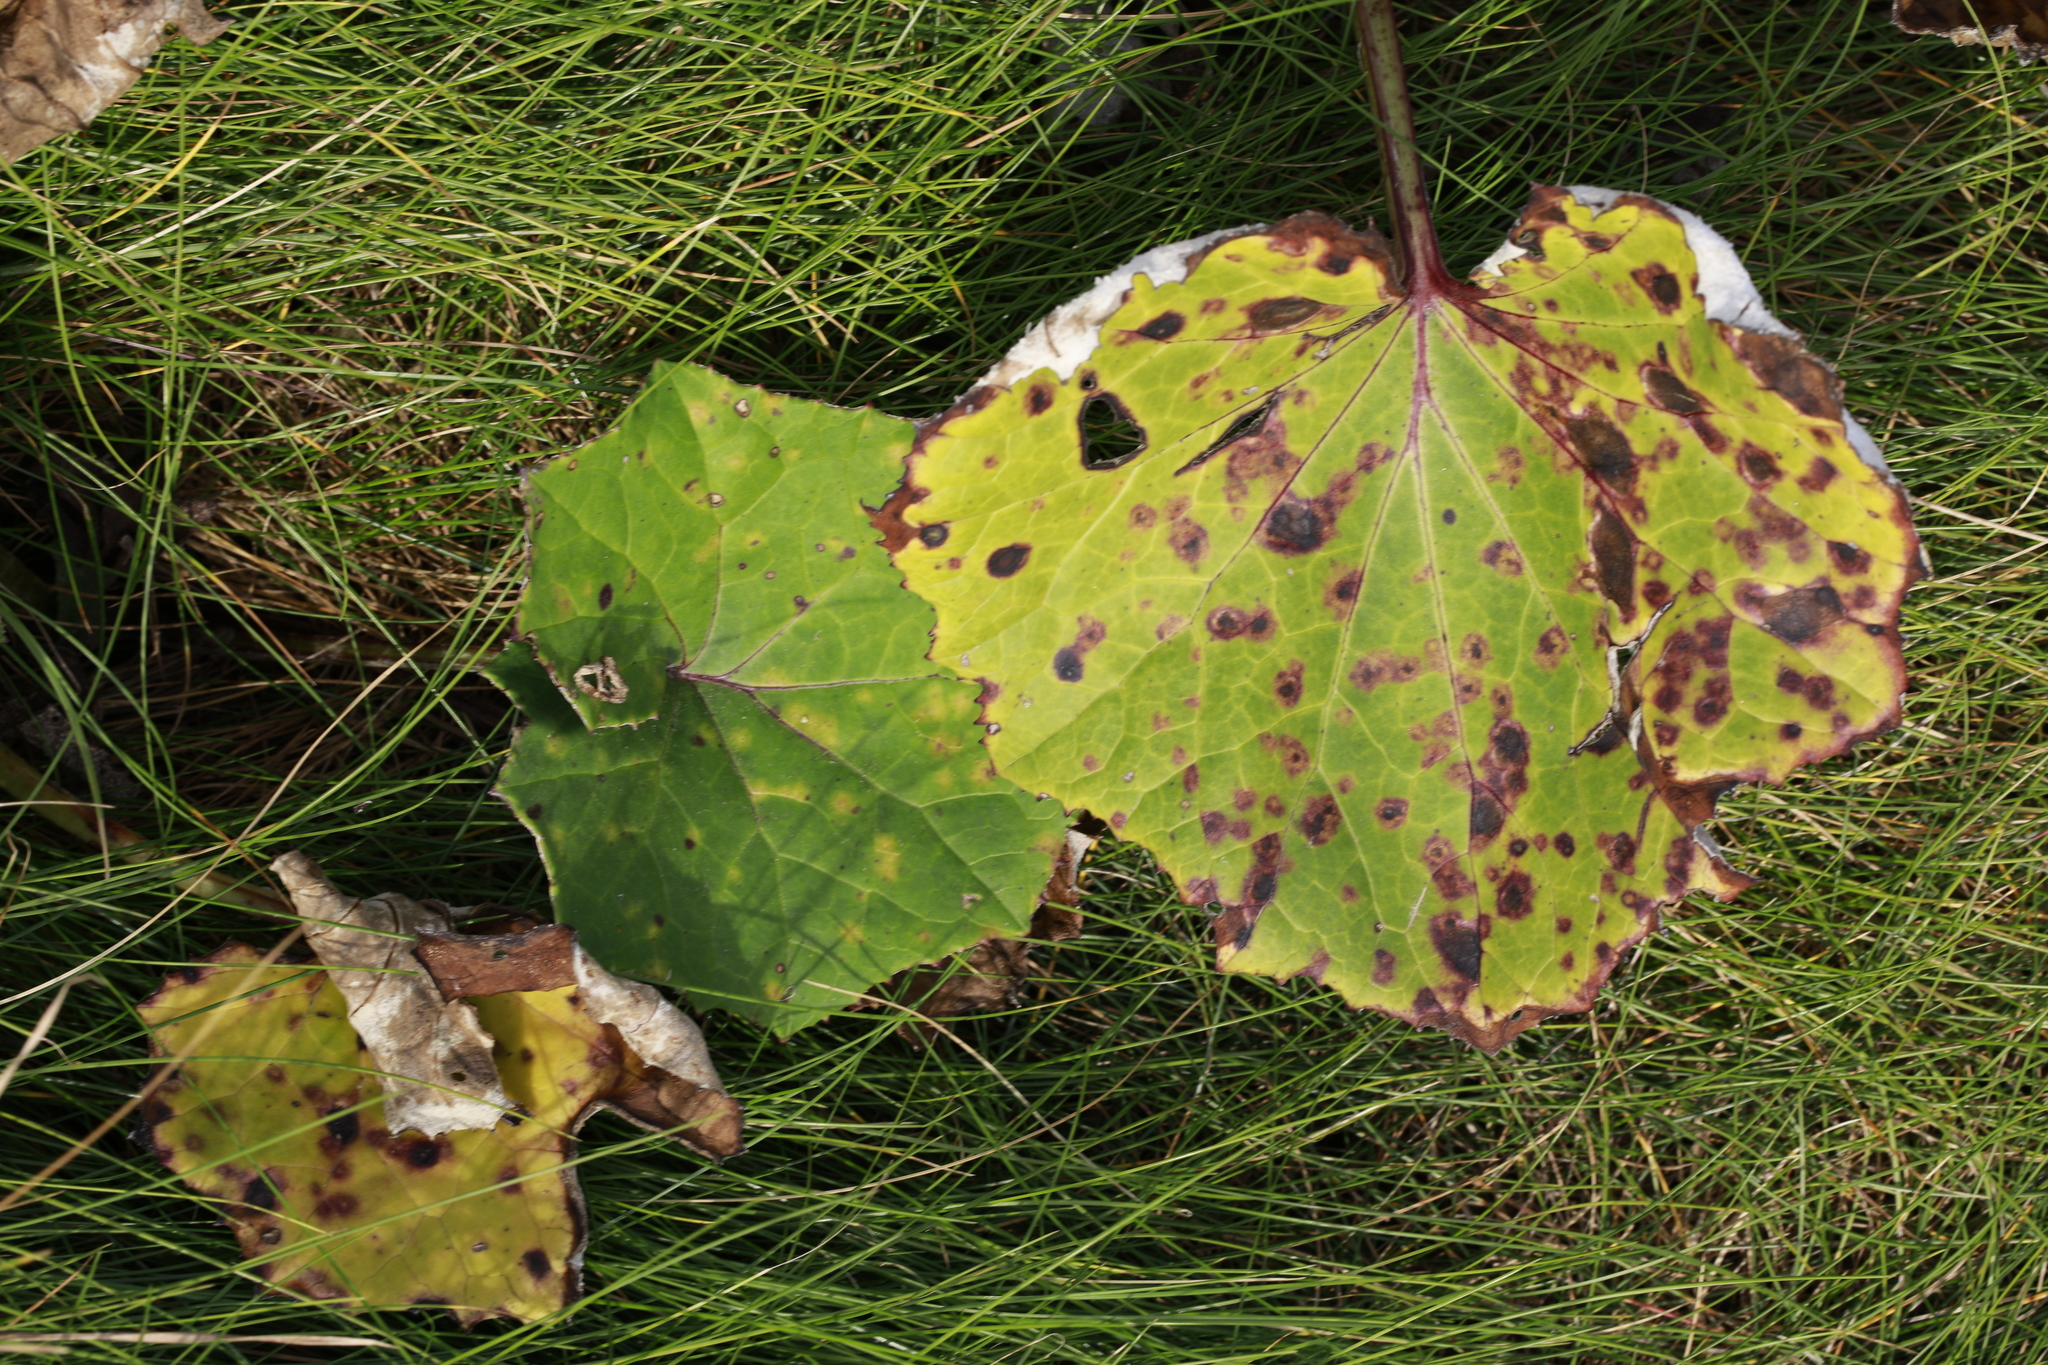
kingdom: Fungi
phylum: Basidiomycota
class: Pucciniomycetes
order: Pucciniales
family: Coleosporiaceae
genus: Coleosporium
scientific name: Coleosporium tussilaginis
